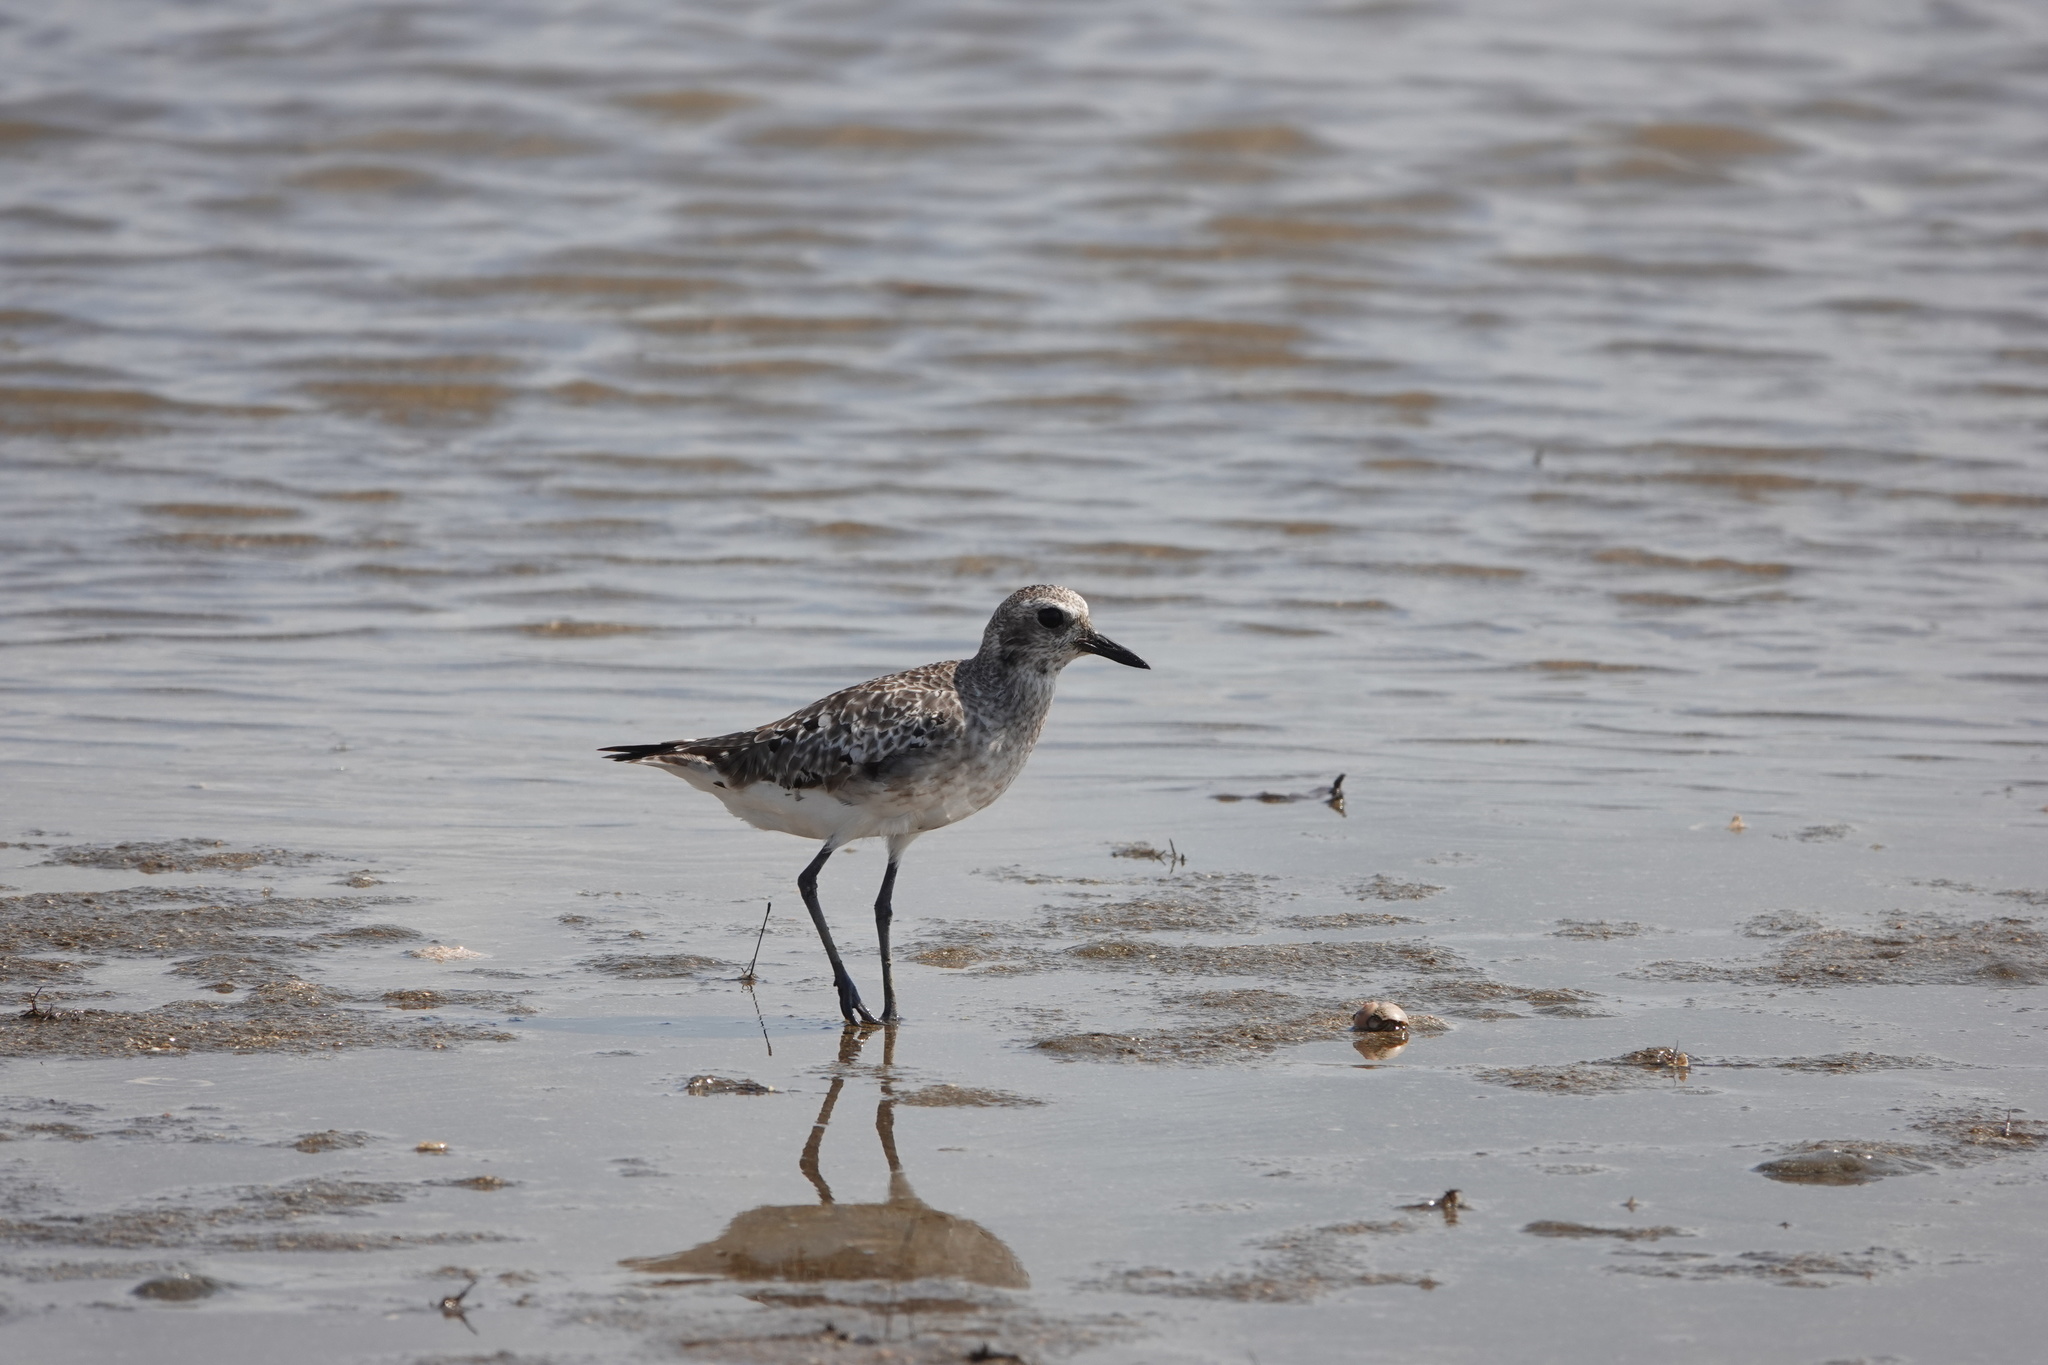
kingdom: Animalia
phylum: Chordata
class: Aves
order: Charadriiformes
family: Charadriidae
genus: Pluvialis
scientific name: Pluvialis squatarola
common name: Grey plover
